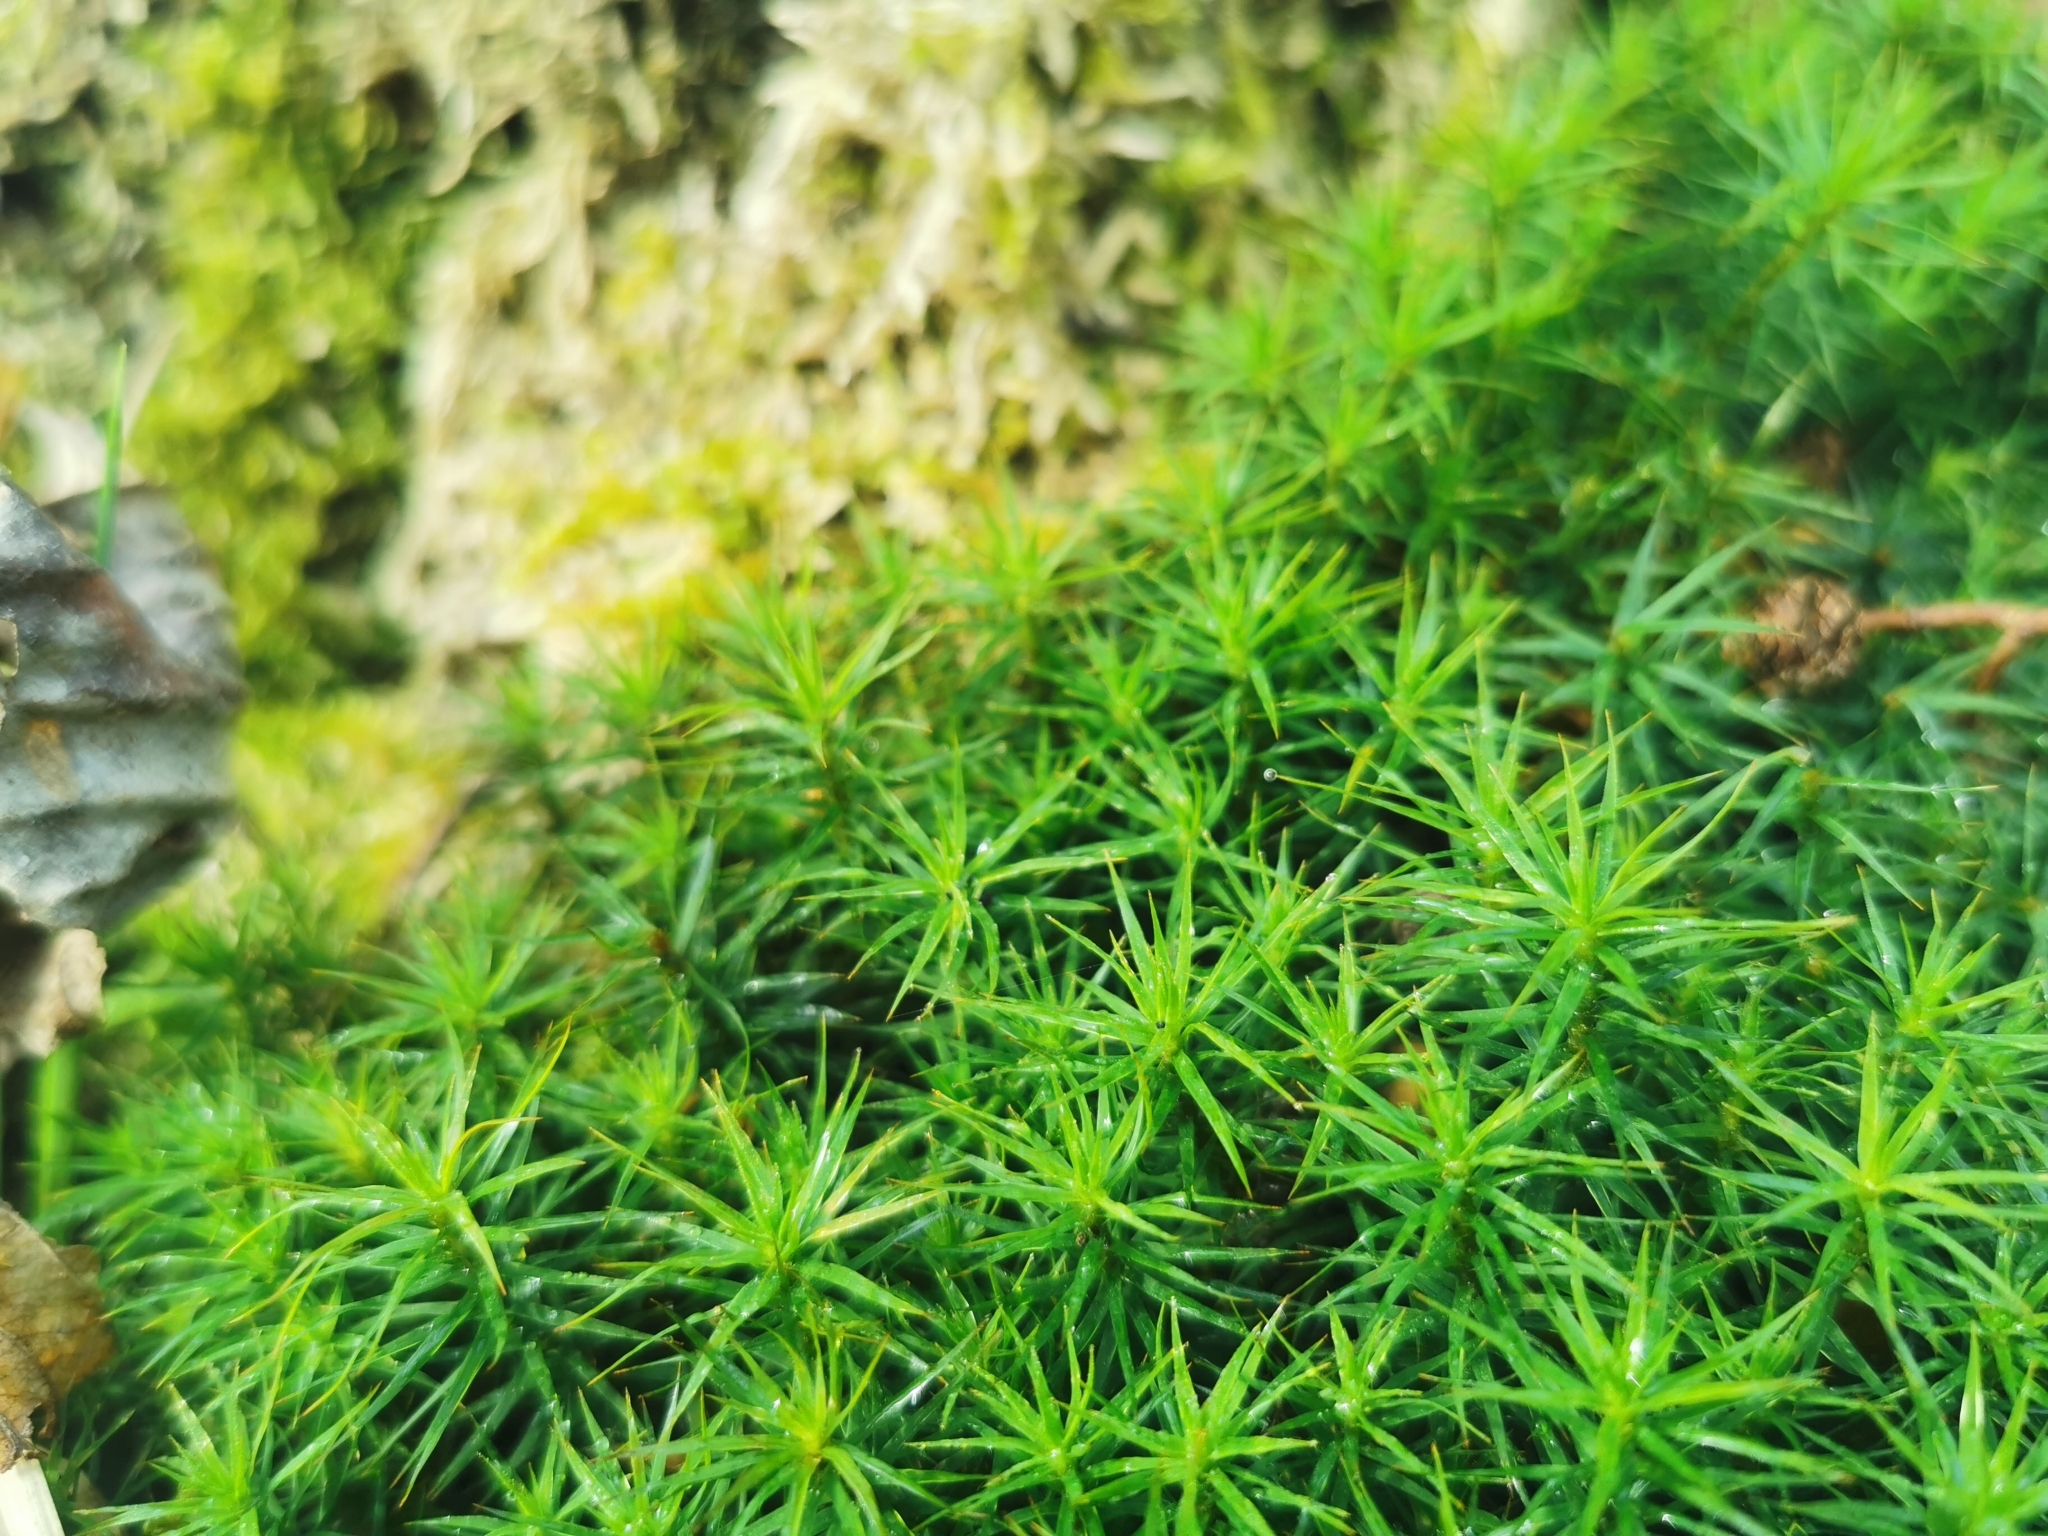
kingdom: Plantae
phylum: Bryophyta
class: Polytrichopsida
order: Polytrichales
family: Polytrichaceae
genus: Polytrichum
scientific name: Polytrichum formosum
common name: Bank haircap moss
